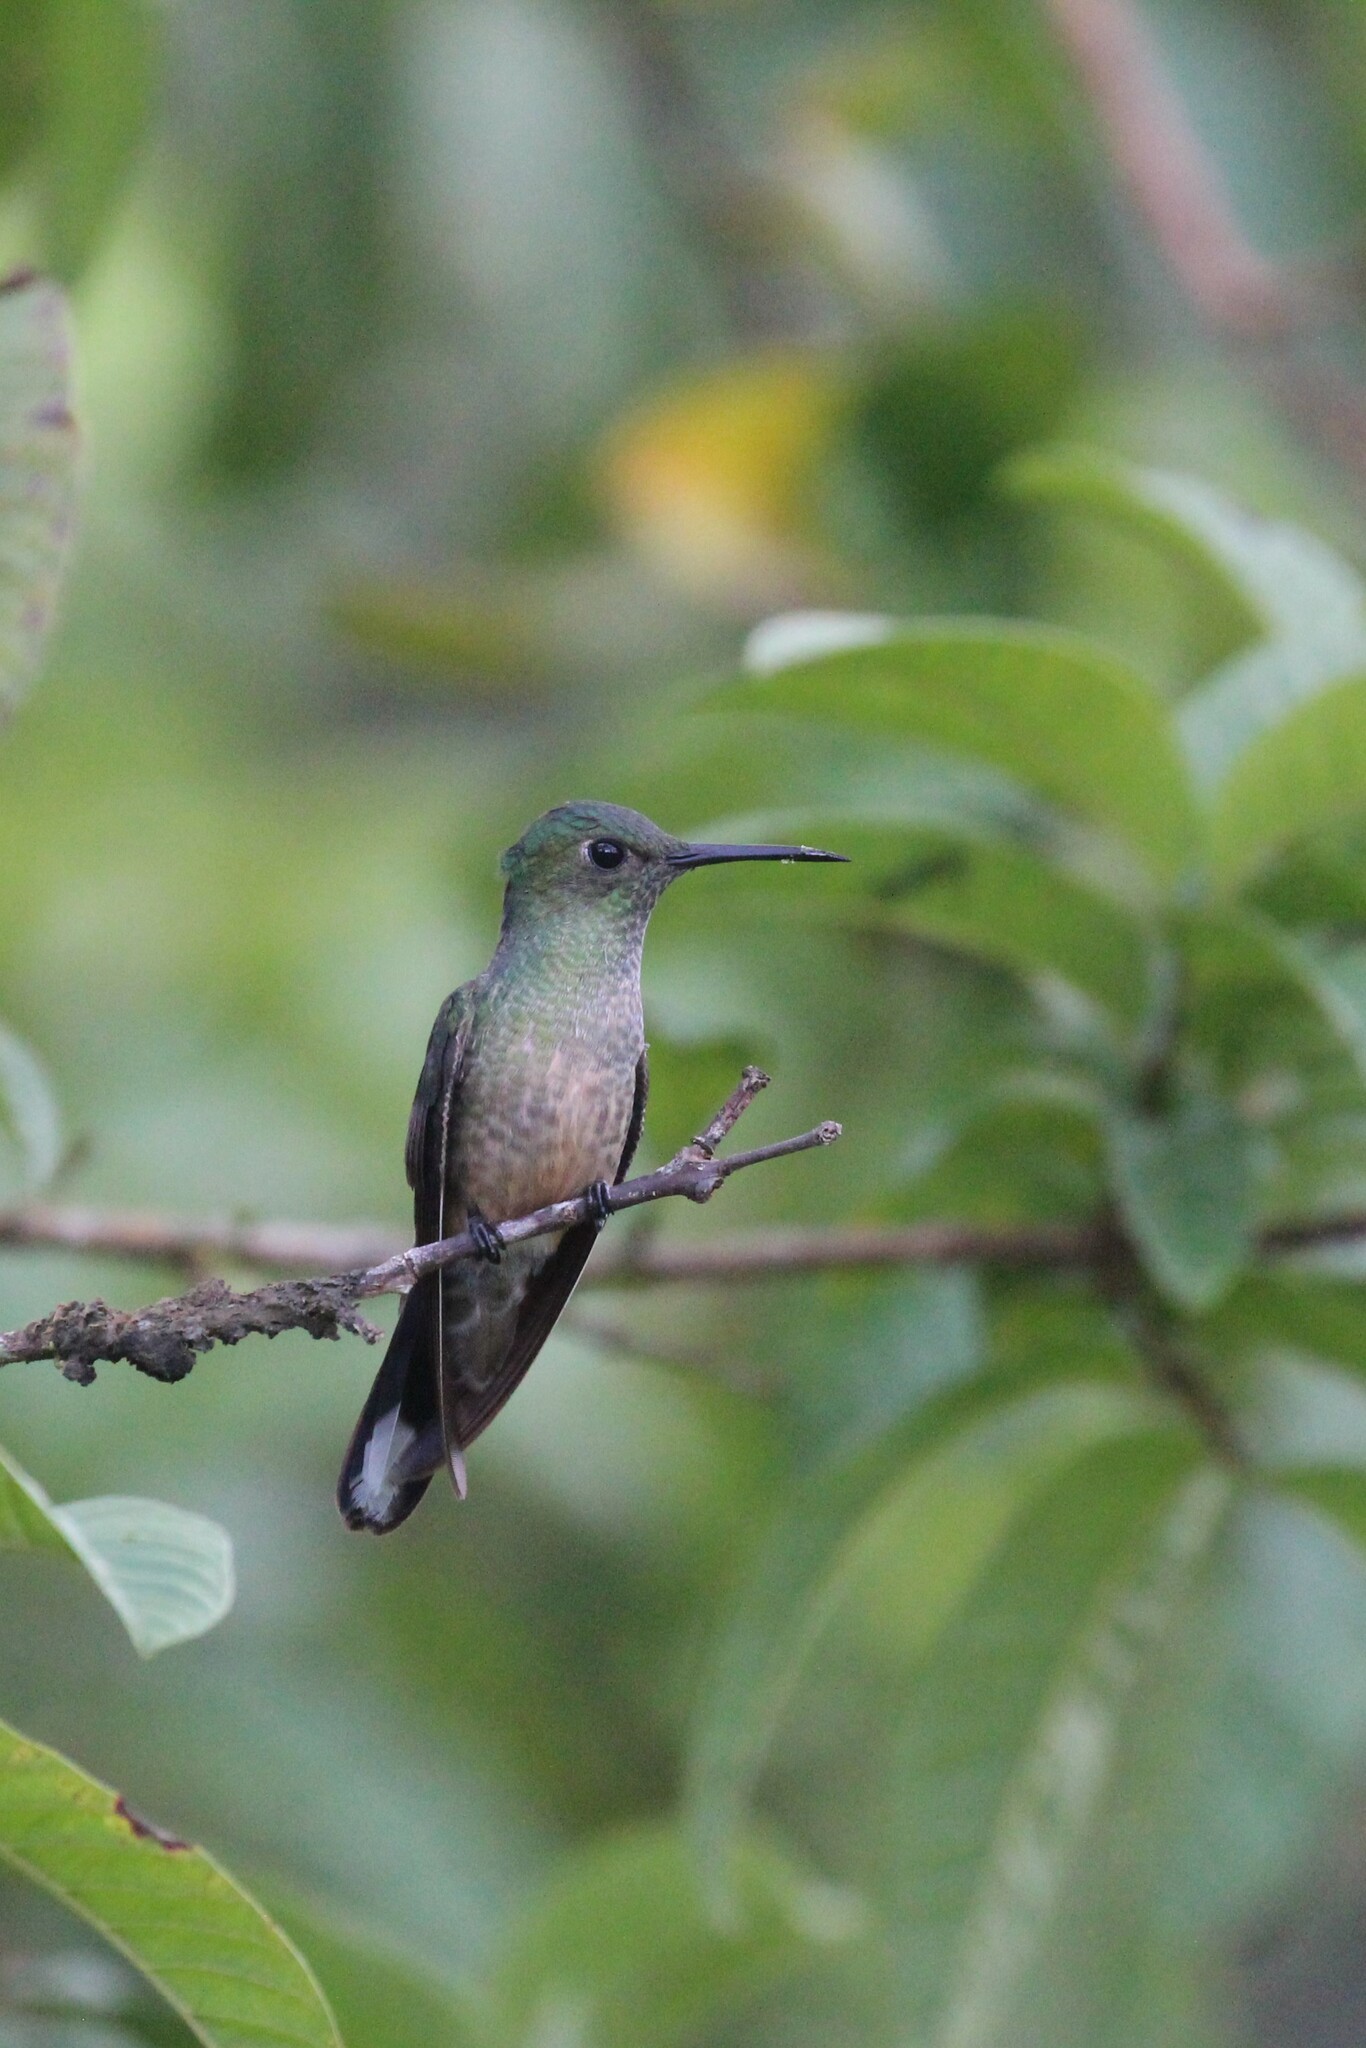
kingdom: Animalia
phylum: Chordata
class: Aves
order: Apodiformes
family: Trochilidae
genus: Phaeochroa
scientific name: Phaeochroa cuvierii
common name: Scaly-breasted hummingbird
